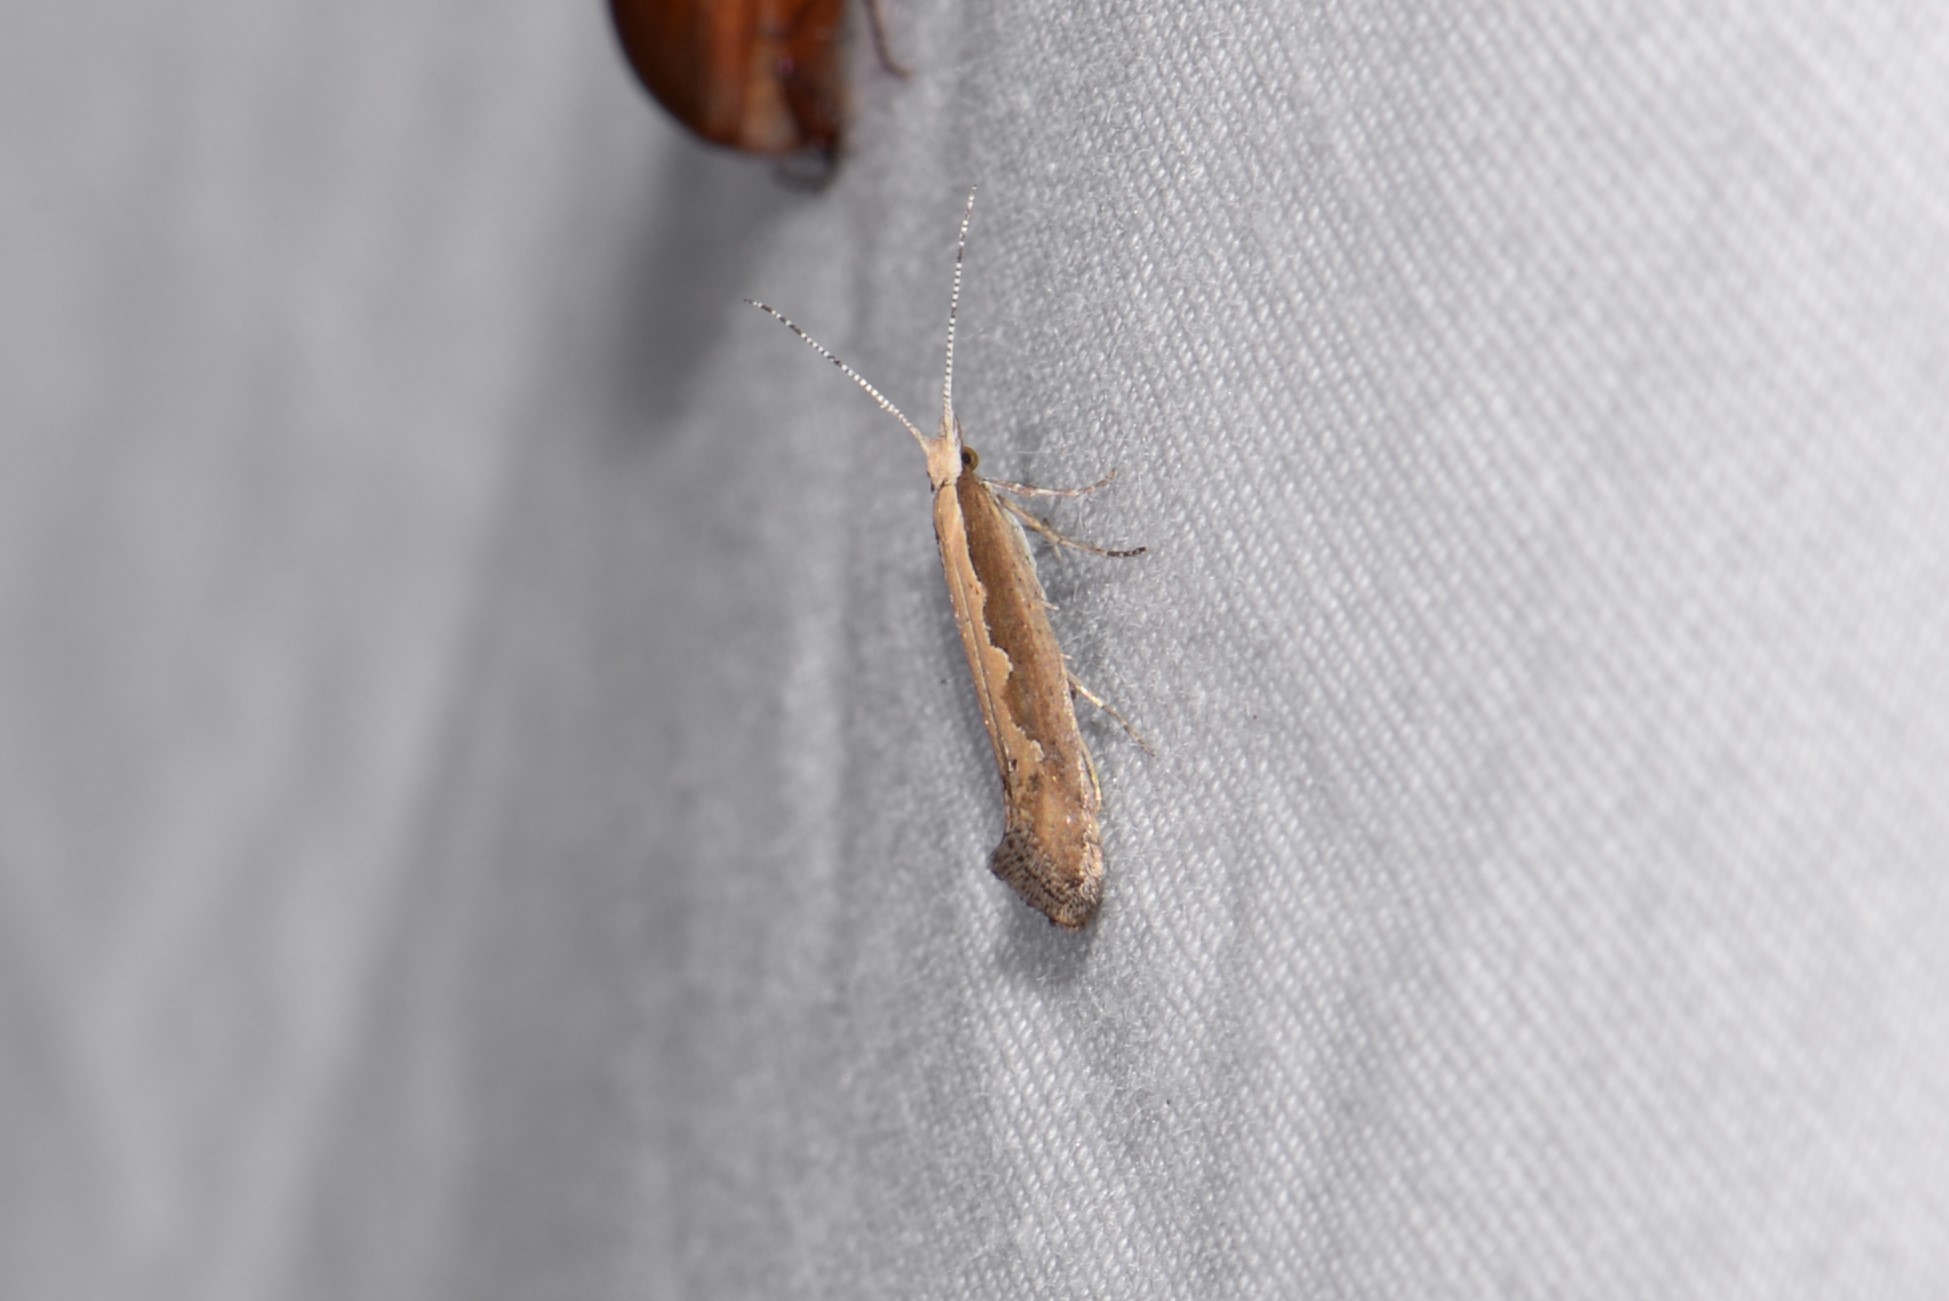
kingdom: Animalia
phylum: Arthropoda
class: Insecta
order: Lepidoptera
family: Plutellidae
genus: Plutella
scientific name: Plutella xylostella
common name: Diamond-back moth
